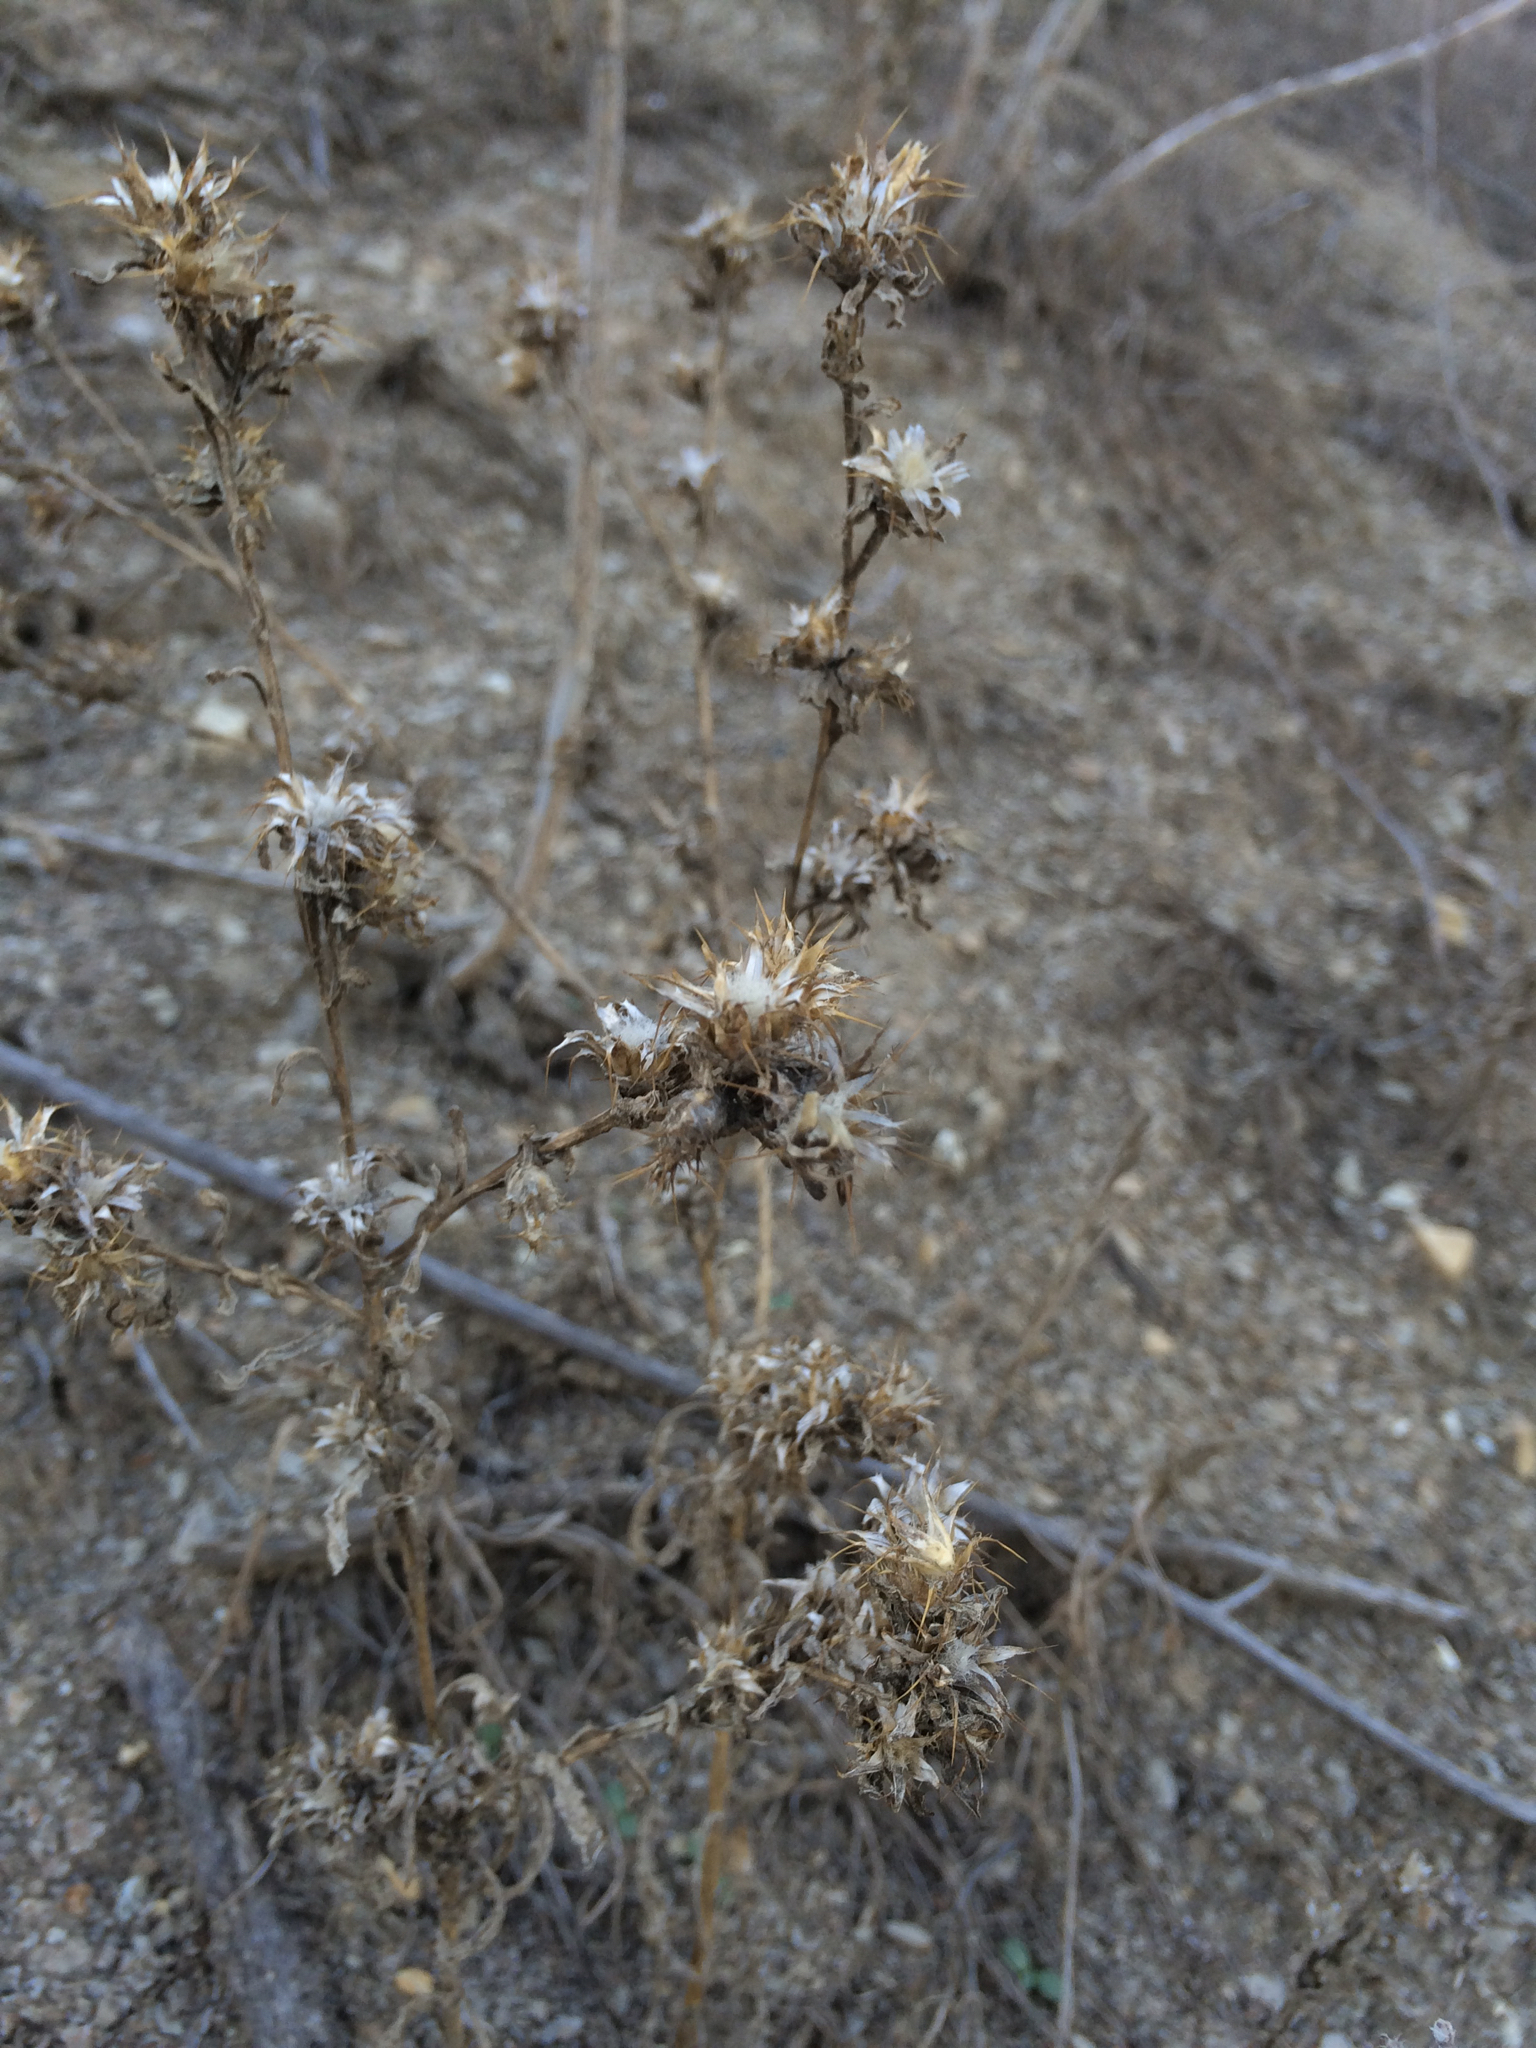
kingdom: Plantae
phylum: Tracheophyta
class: Magnoliopsida
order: Asterales
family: Asteraceae
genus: Centaurea
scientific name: Centaurea melitensis
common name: Maltese star-thistle
